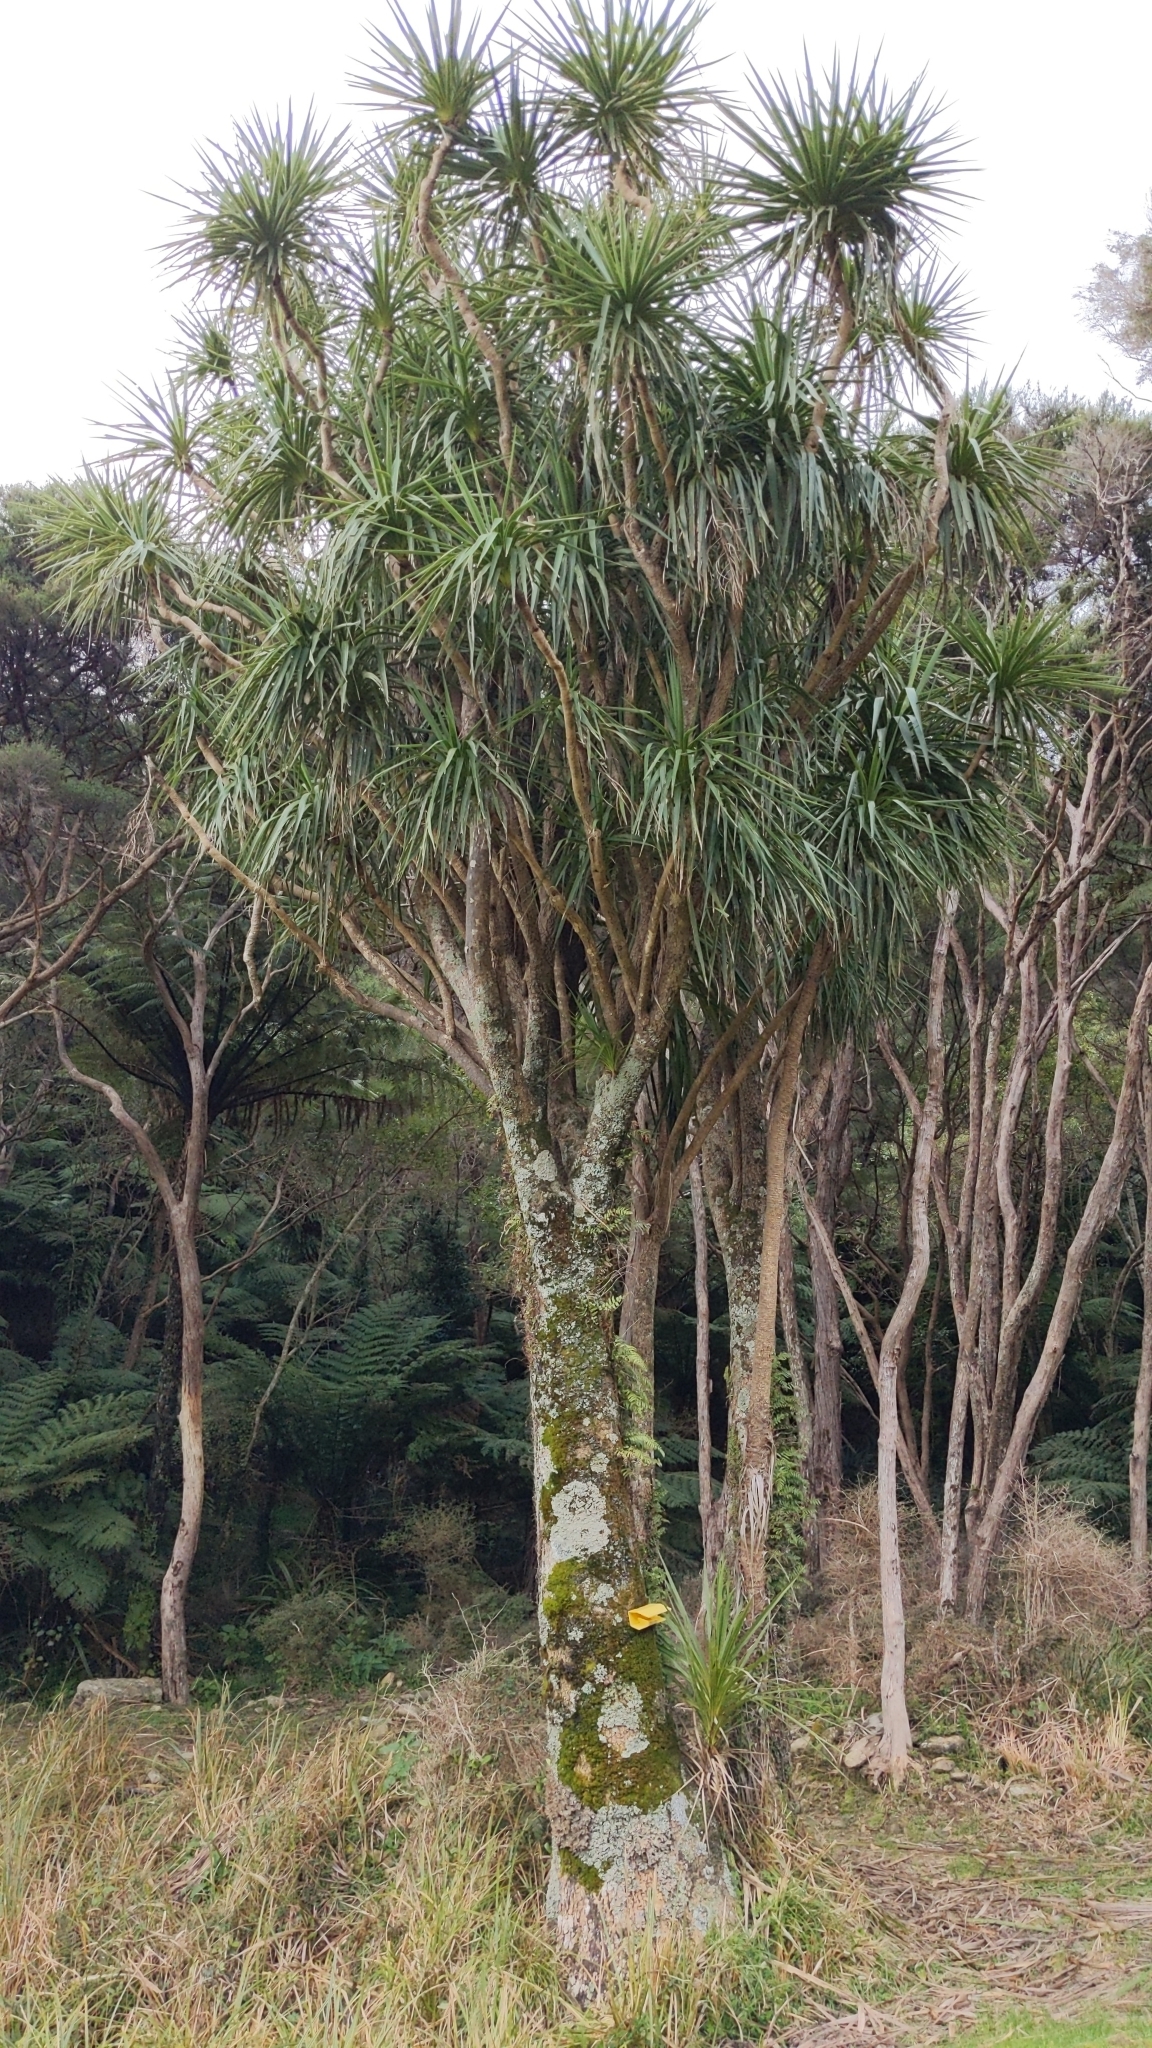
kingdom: Plantae
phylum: Tracheophyta
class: Liliopsida
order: Asparagales
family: Asparagaceae
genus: Cordyline
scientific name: Cordyline australis
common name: Cabbage-palm
